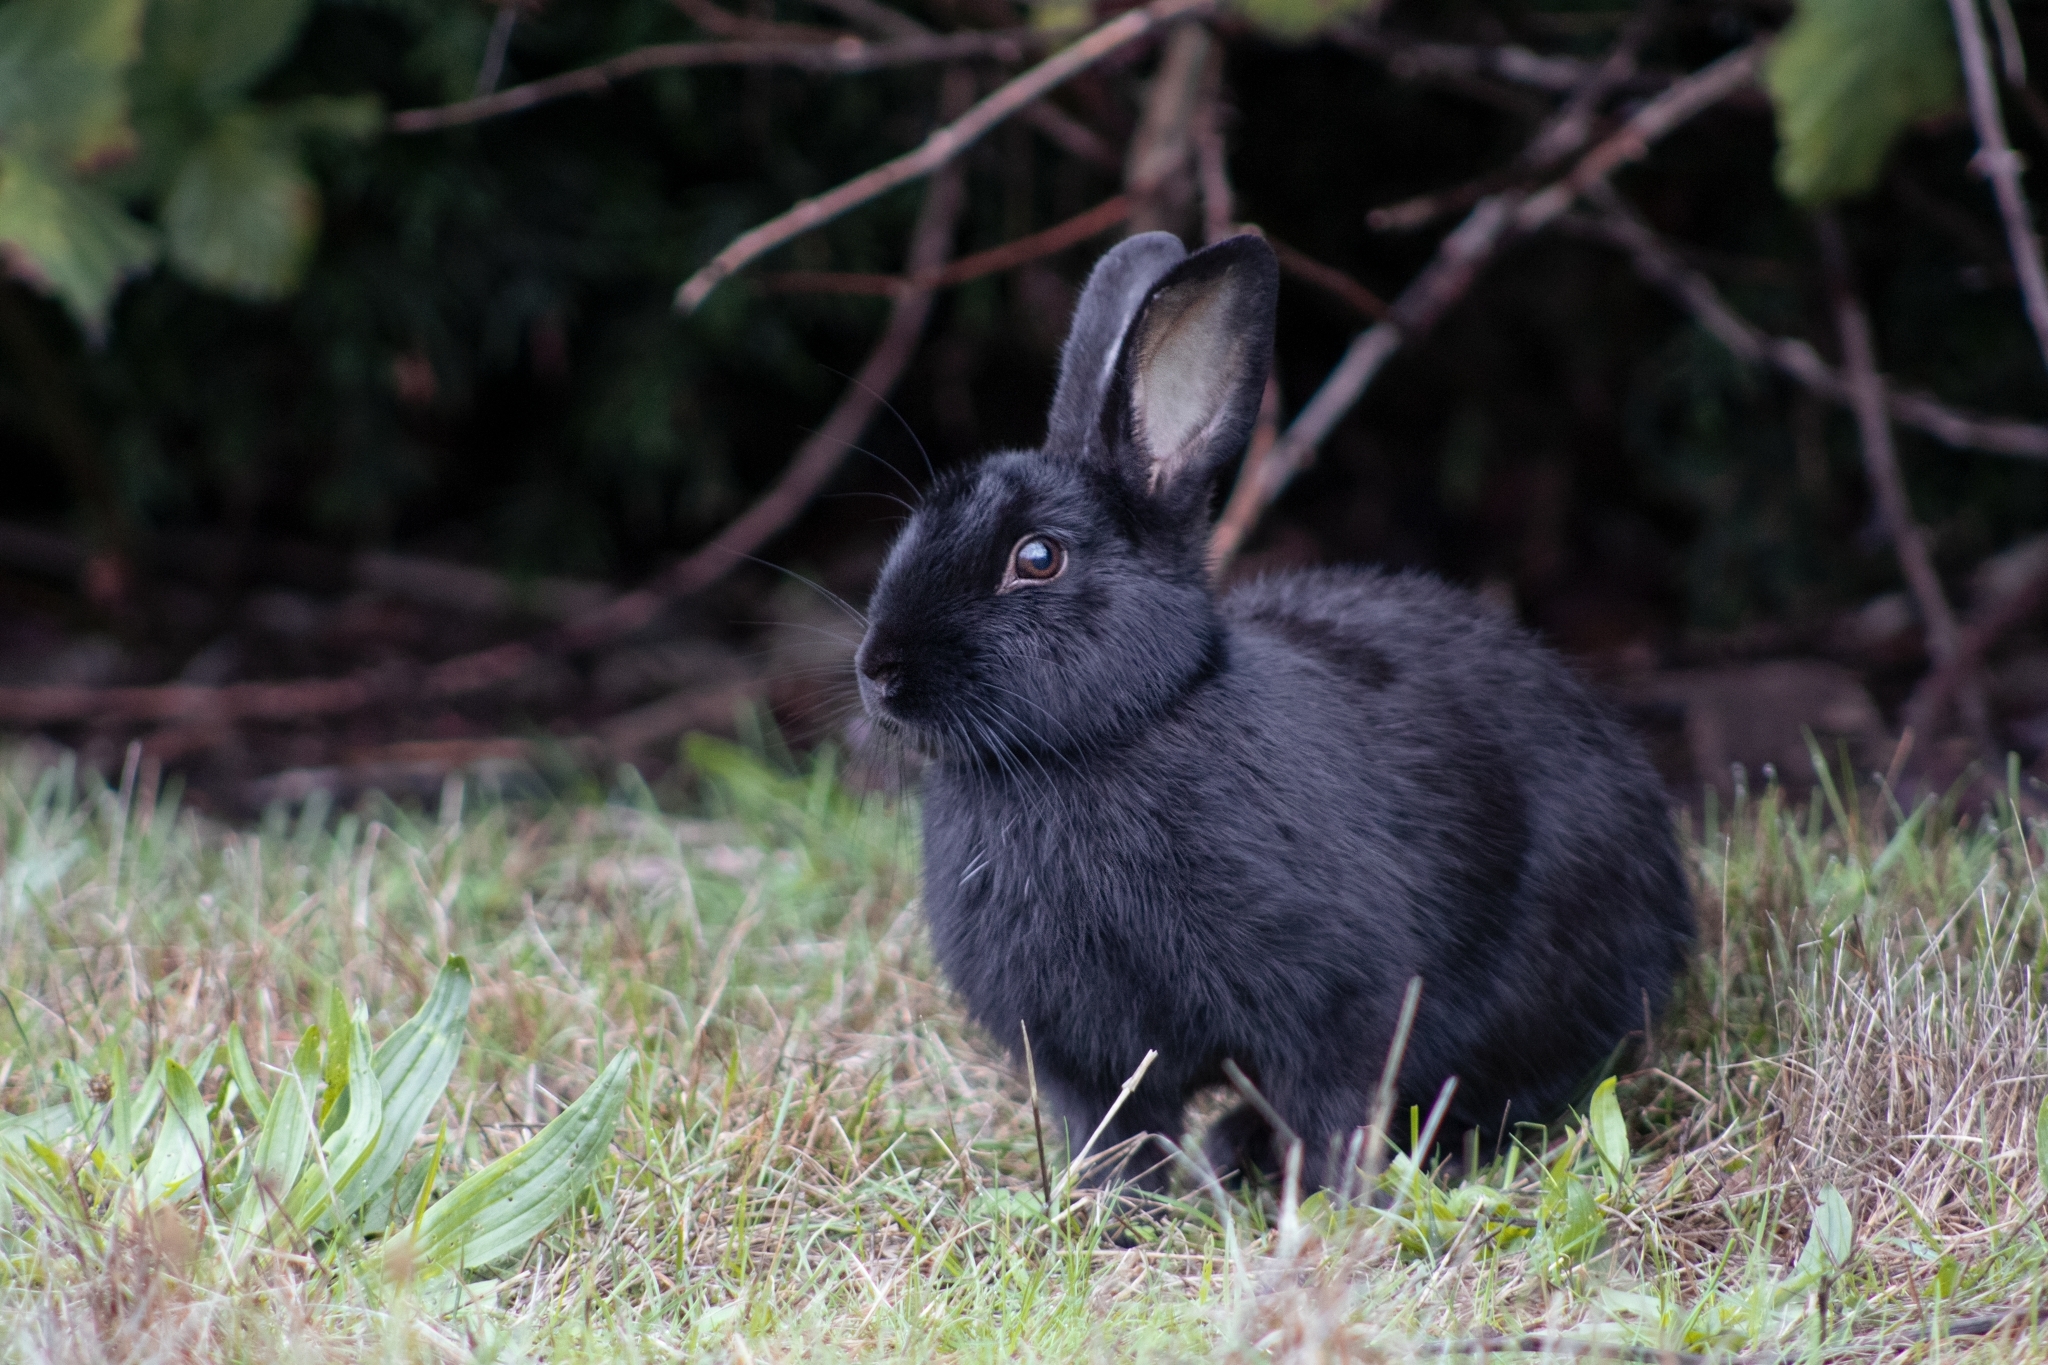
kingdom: Animalia
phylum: Chordata
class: Mammalia
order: Lagomorpha
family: Leporidae
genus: Oryctolagus
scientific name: Oryctolagus cuniculus
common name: European rabbit
